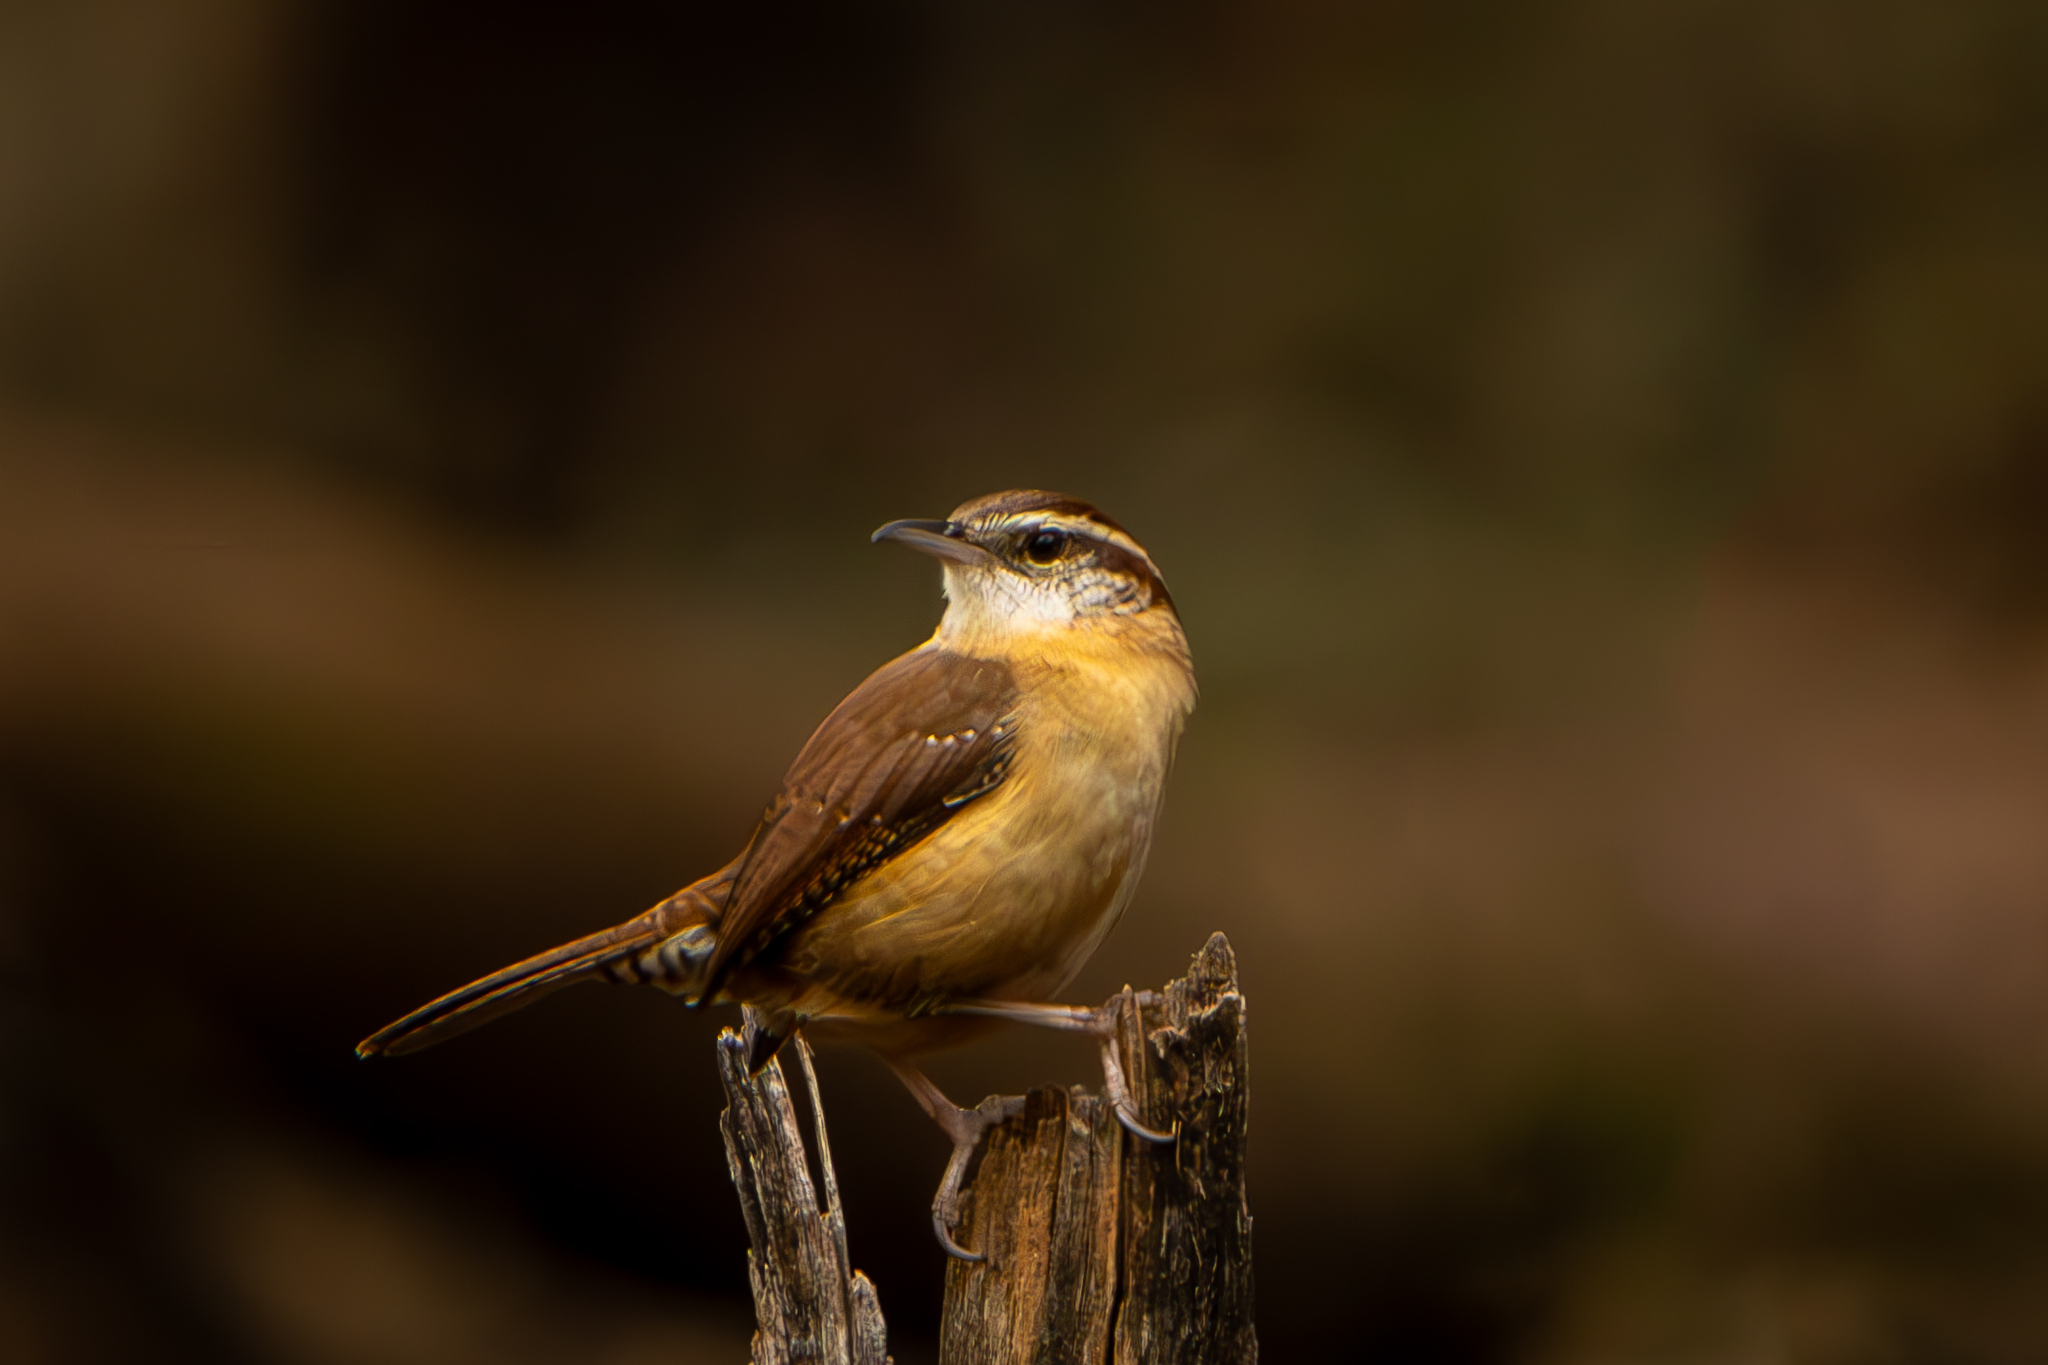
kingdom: Animalia
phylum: Chordata
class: Aves
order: Passeriformes
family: Troglodytidae
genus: Thryothorus
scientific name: Thryothorus ludovicianus
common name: Carolina wren
